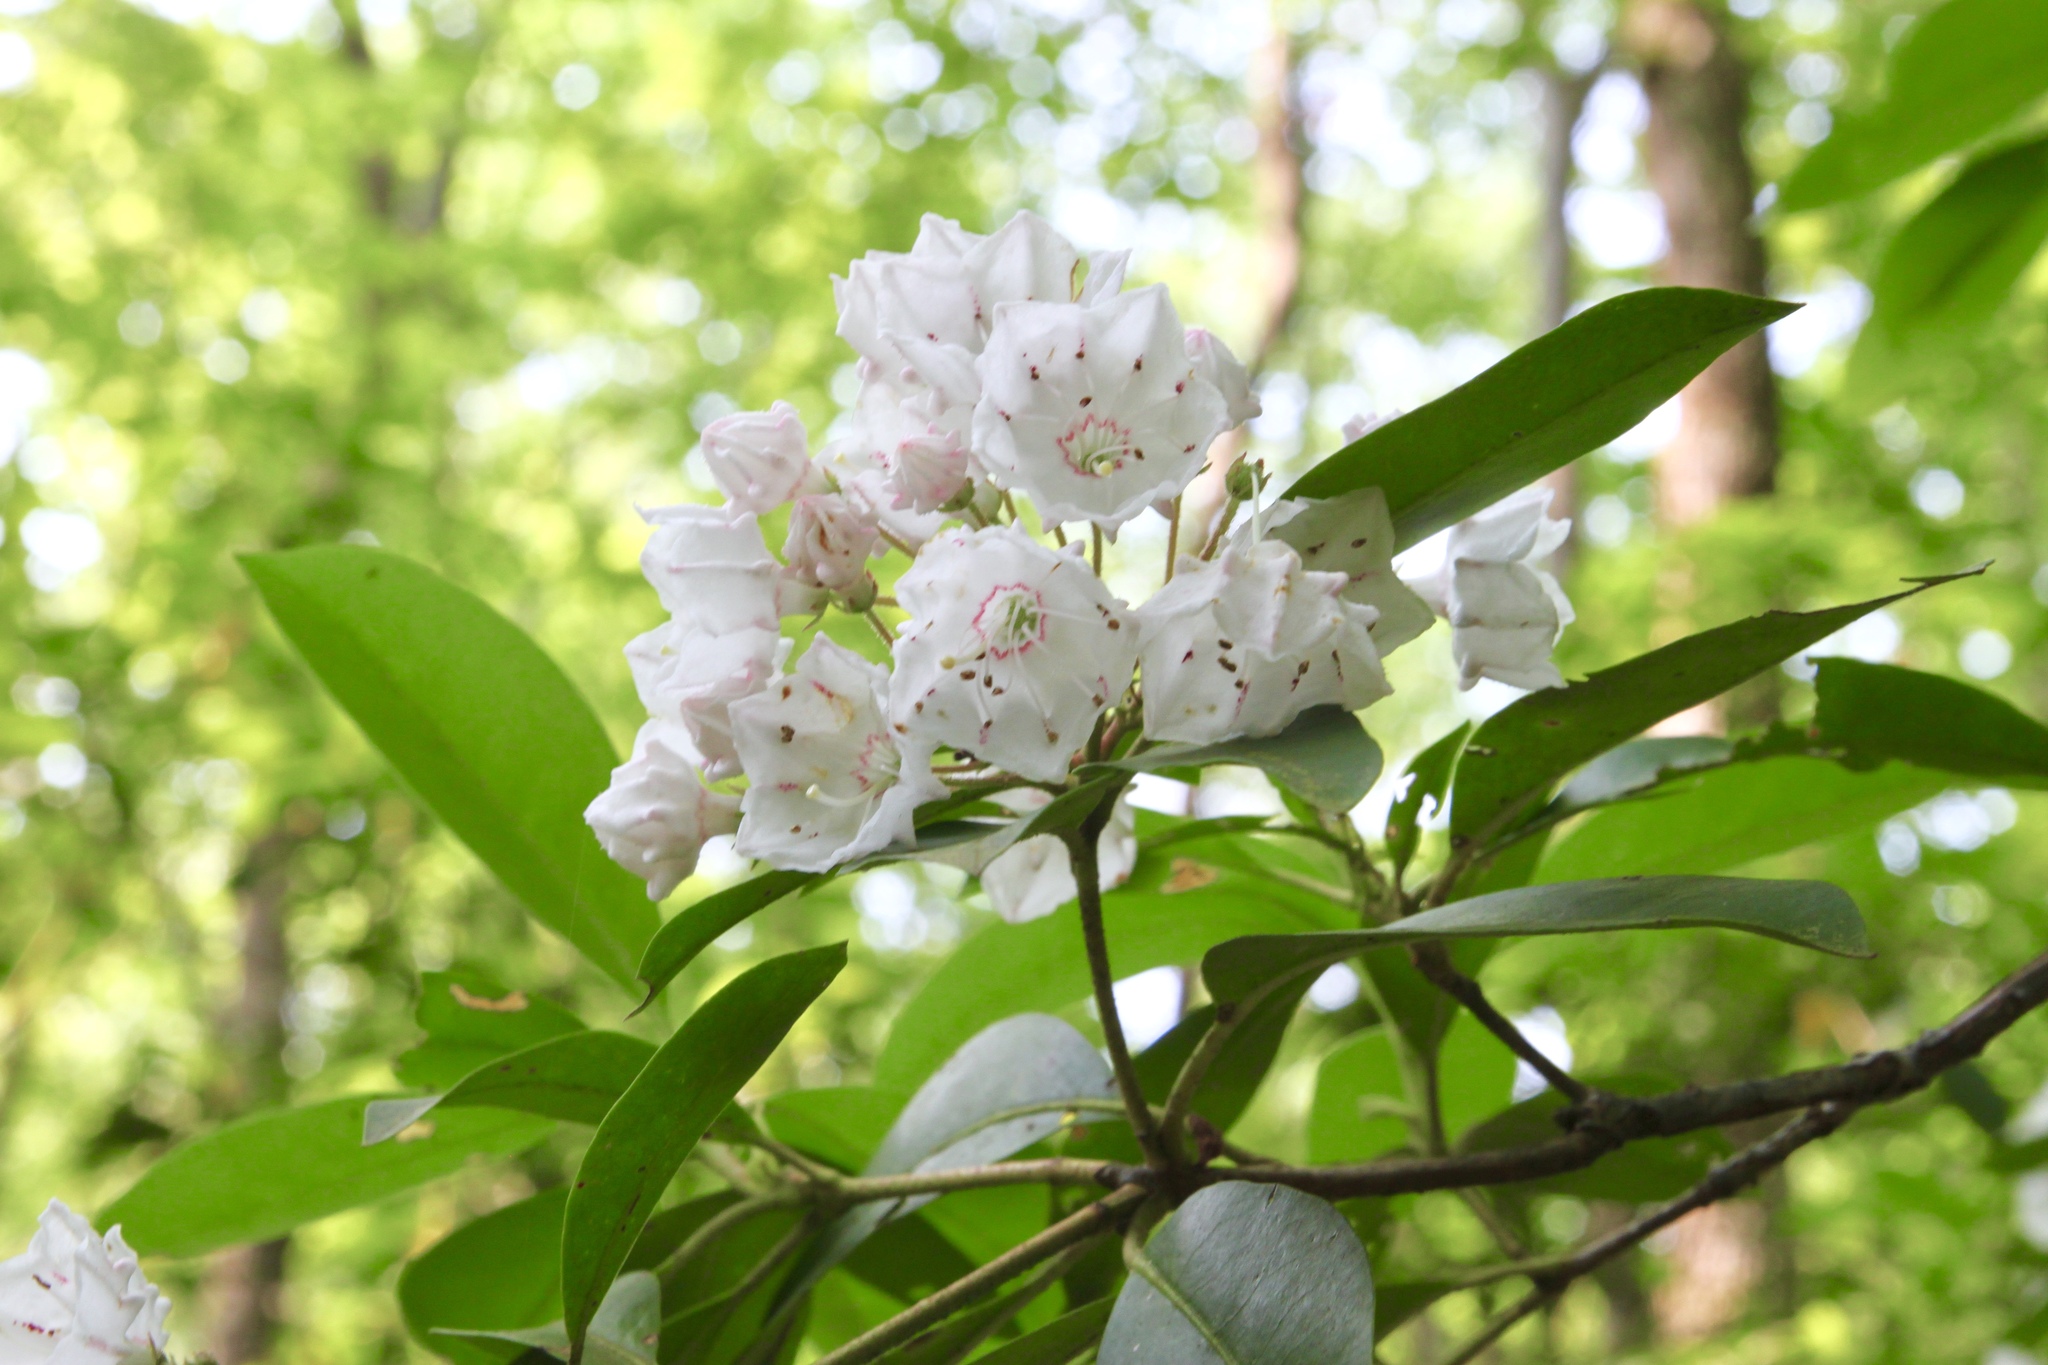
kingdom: Plantae
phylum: Tracheophyta
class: Magnoliopsida
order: Ericales
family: Ericaceae
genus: Kalmia
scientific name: Kalmia latifolia
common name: Mountain-laurel
